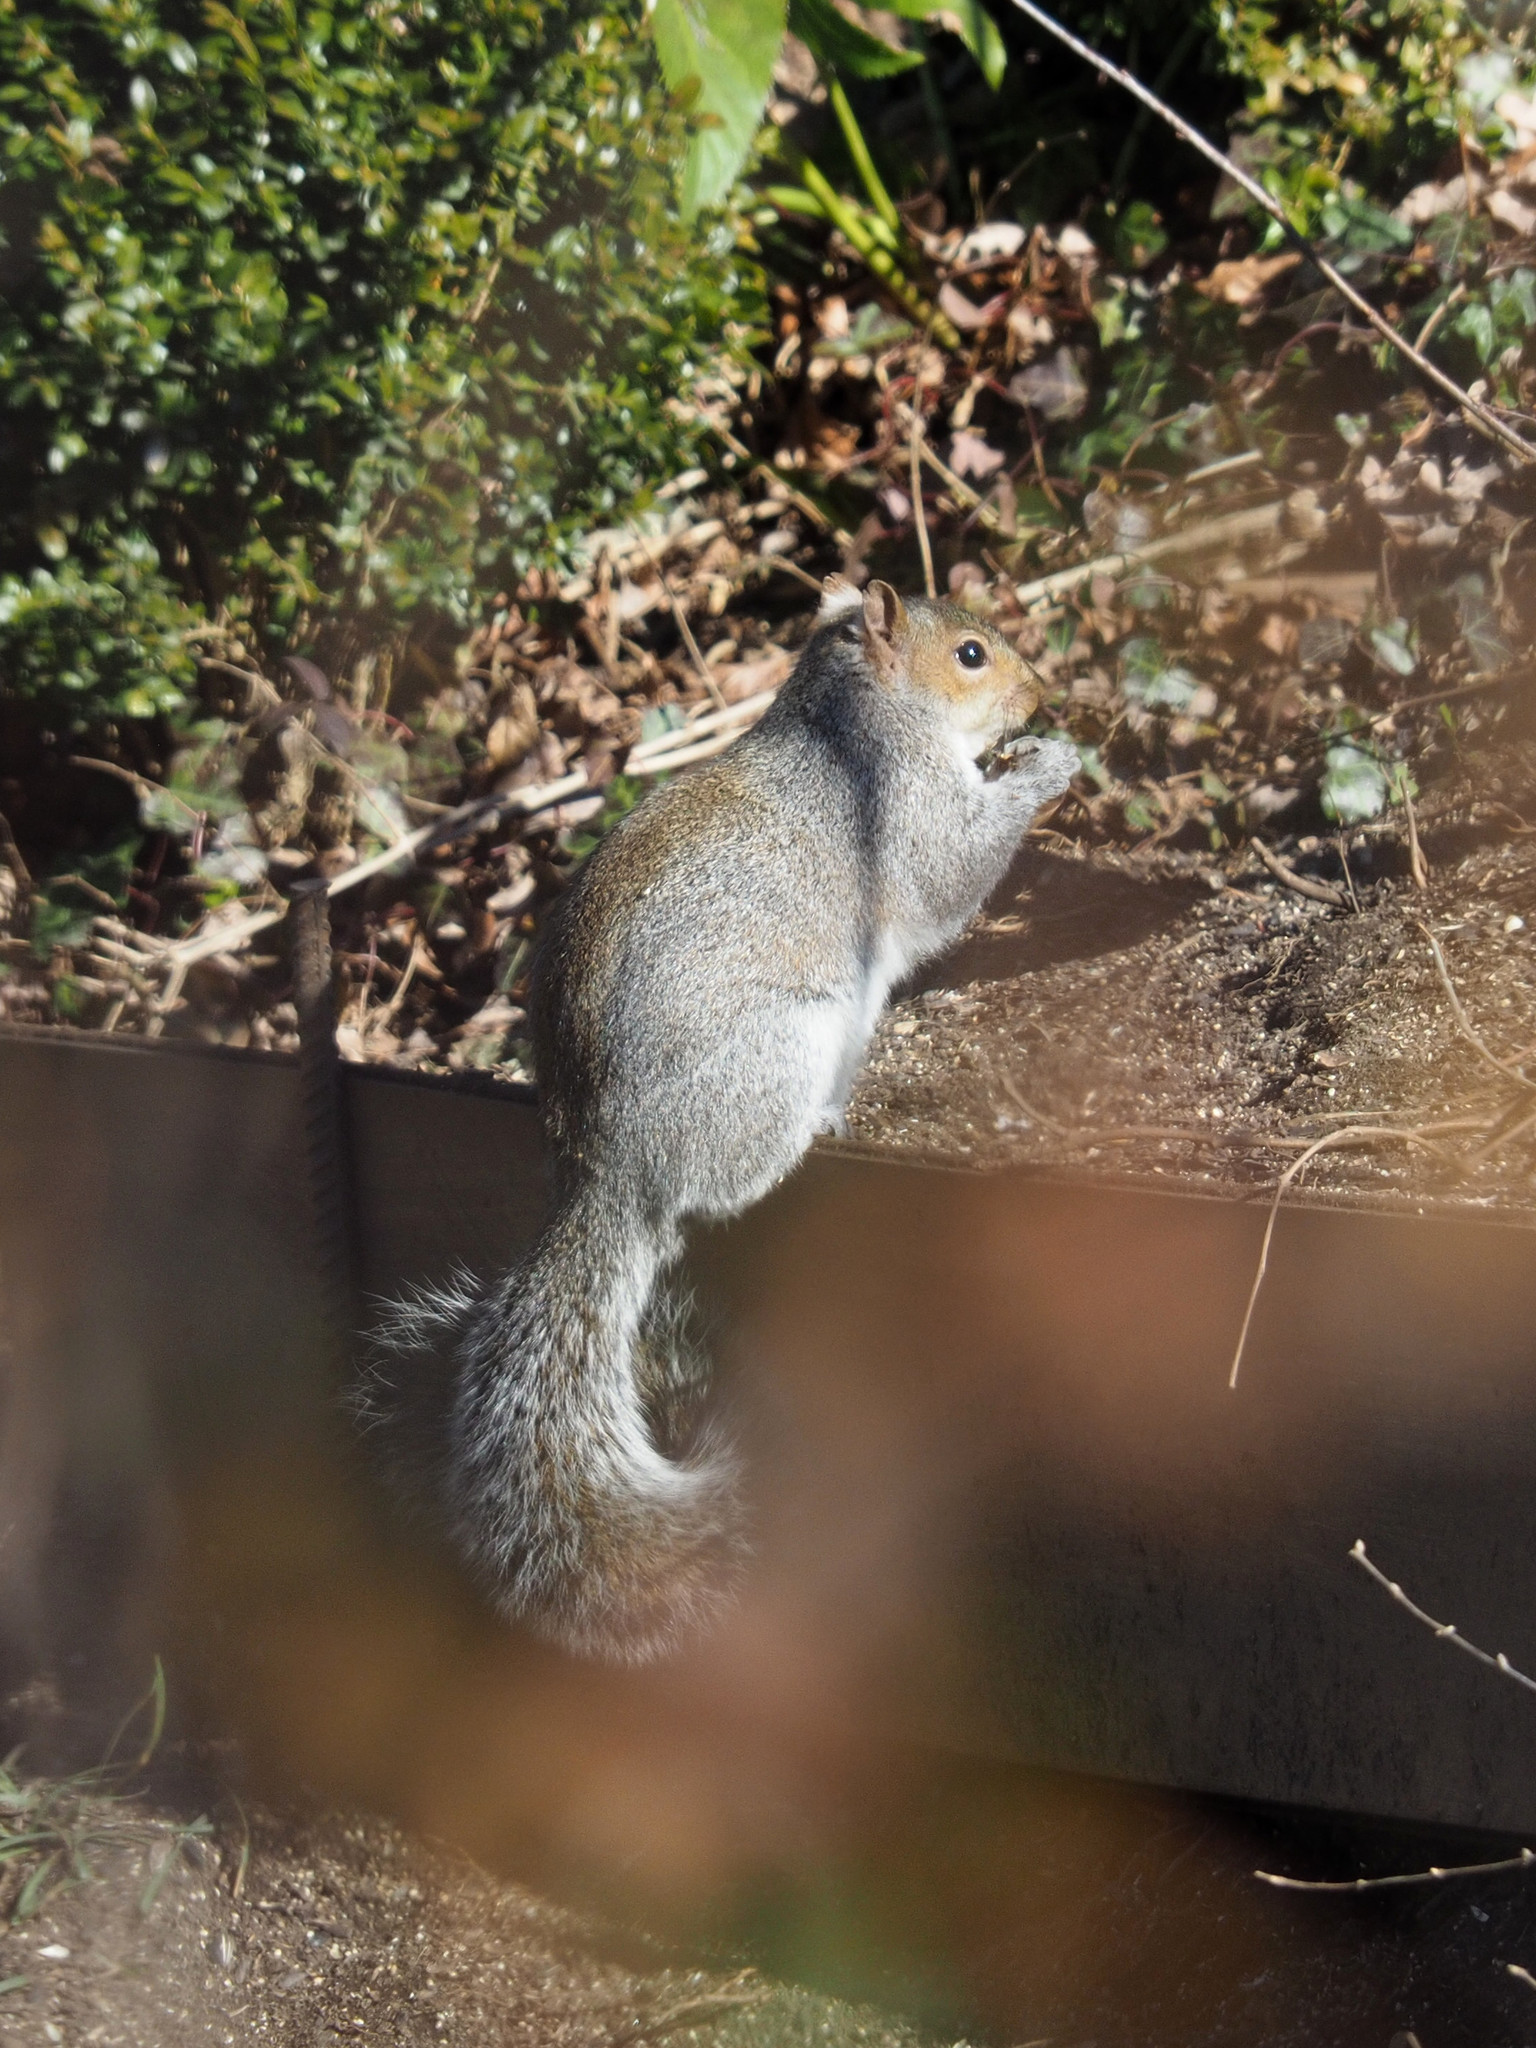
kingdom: Animalia
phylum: Chordata
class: Mammalia
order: Rodentia
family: Sciuridae
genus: Sciurus
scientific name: Sciurus carolinensis
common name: Eastern gray squirrel
